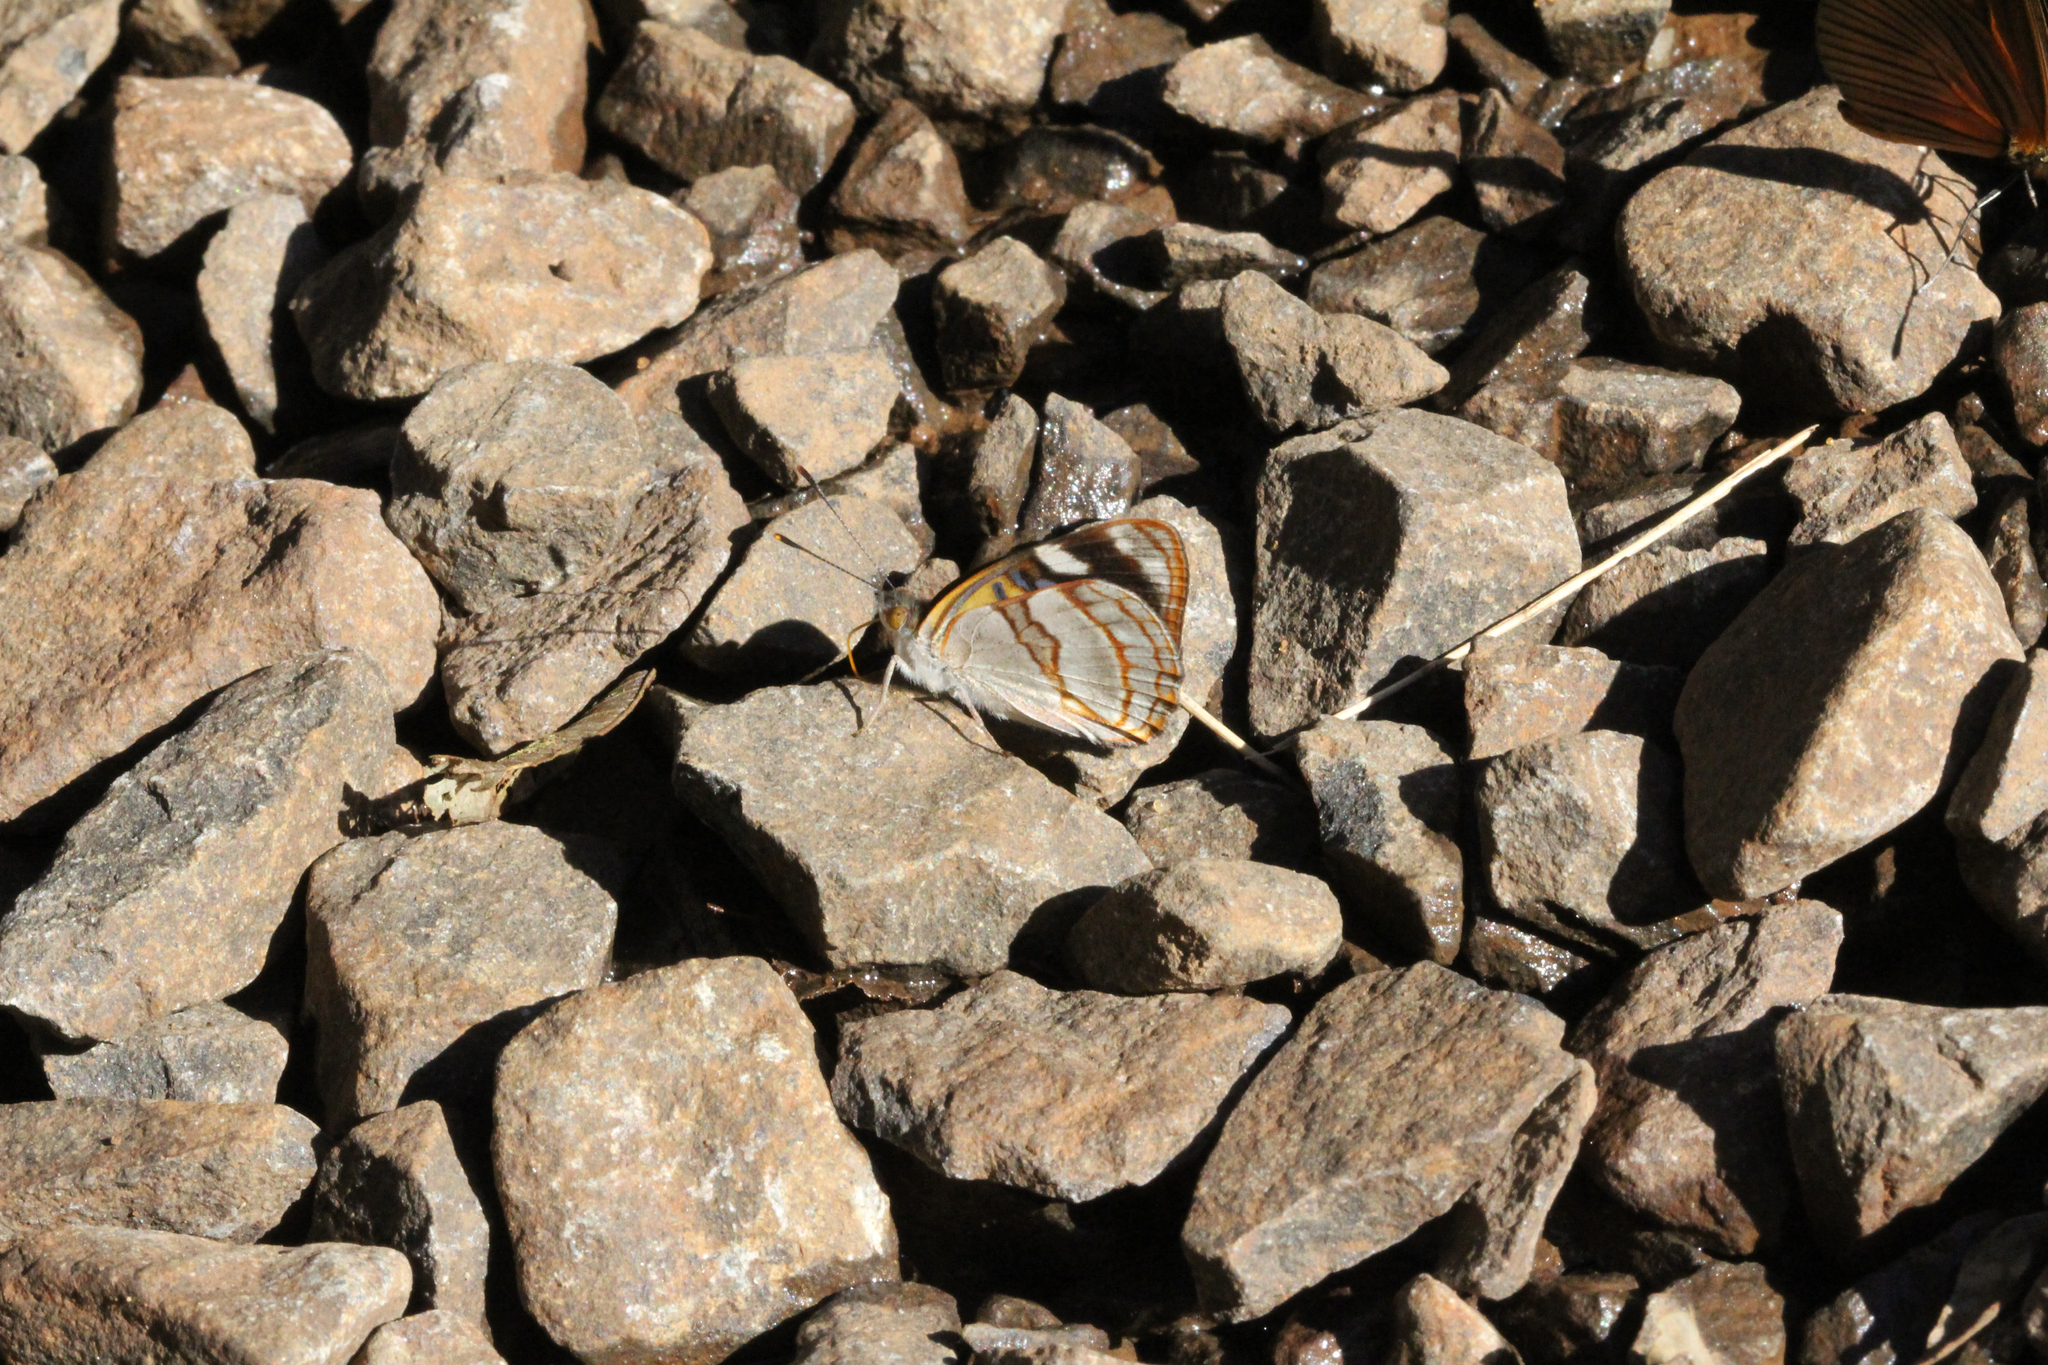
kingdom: Animalia
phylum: Arthropoda
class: Insecta
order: Lepidoptera
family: Nymphalidae
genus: Dynamine
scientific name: Dynamine tithia
